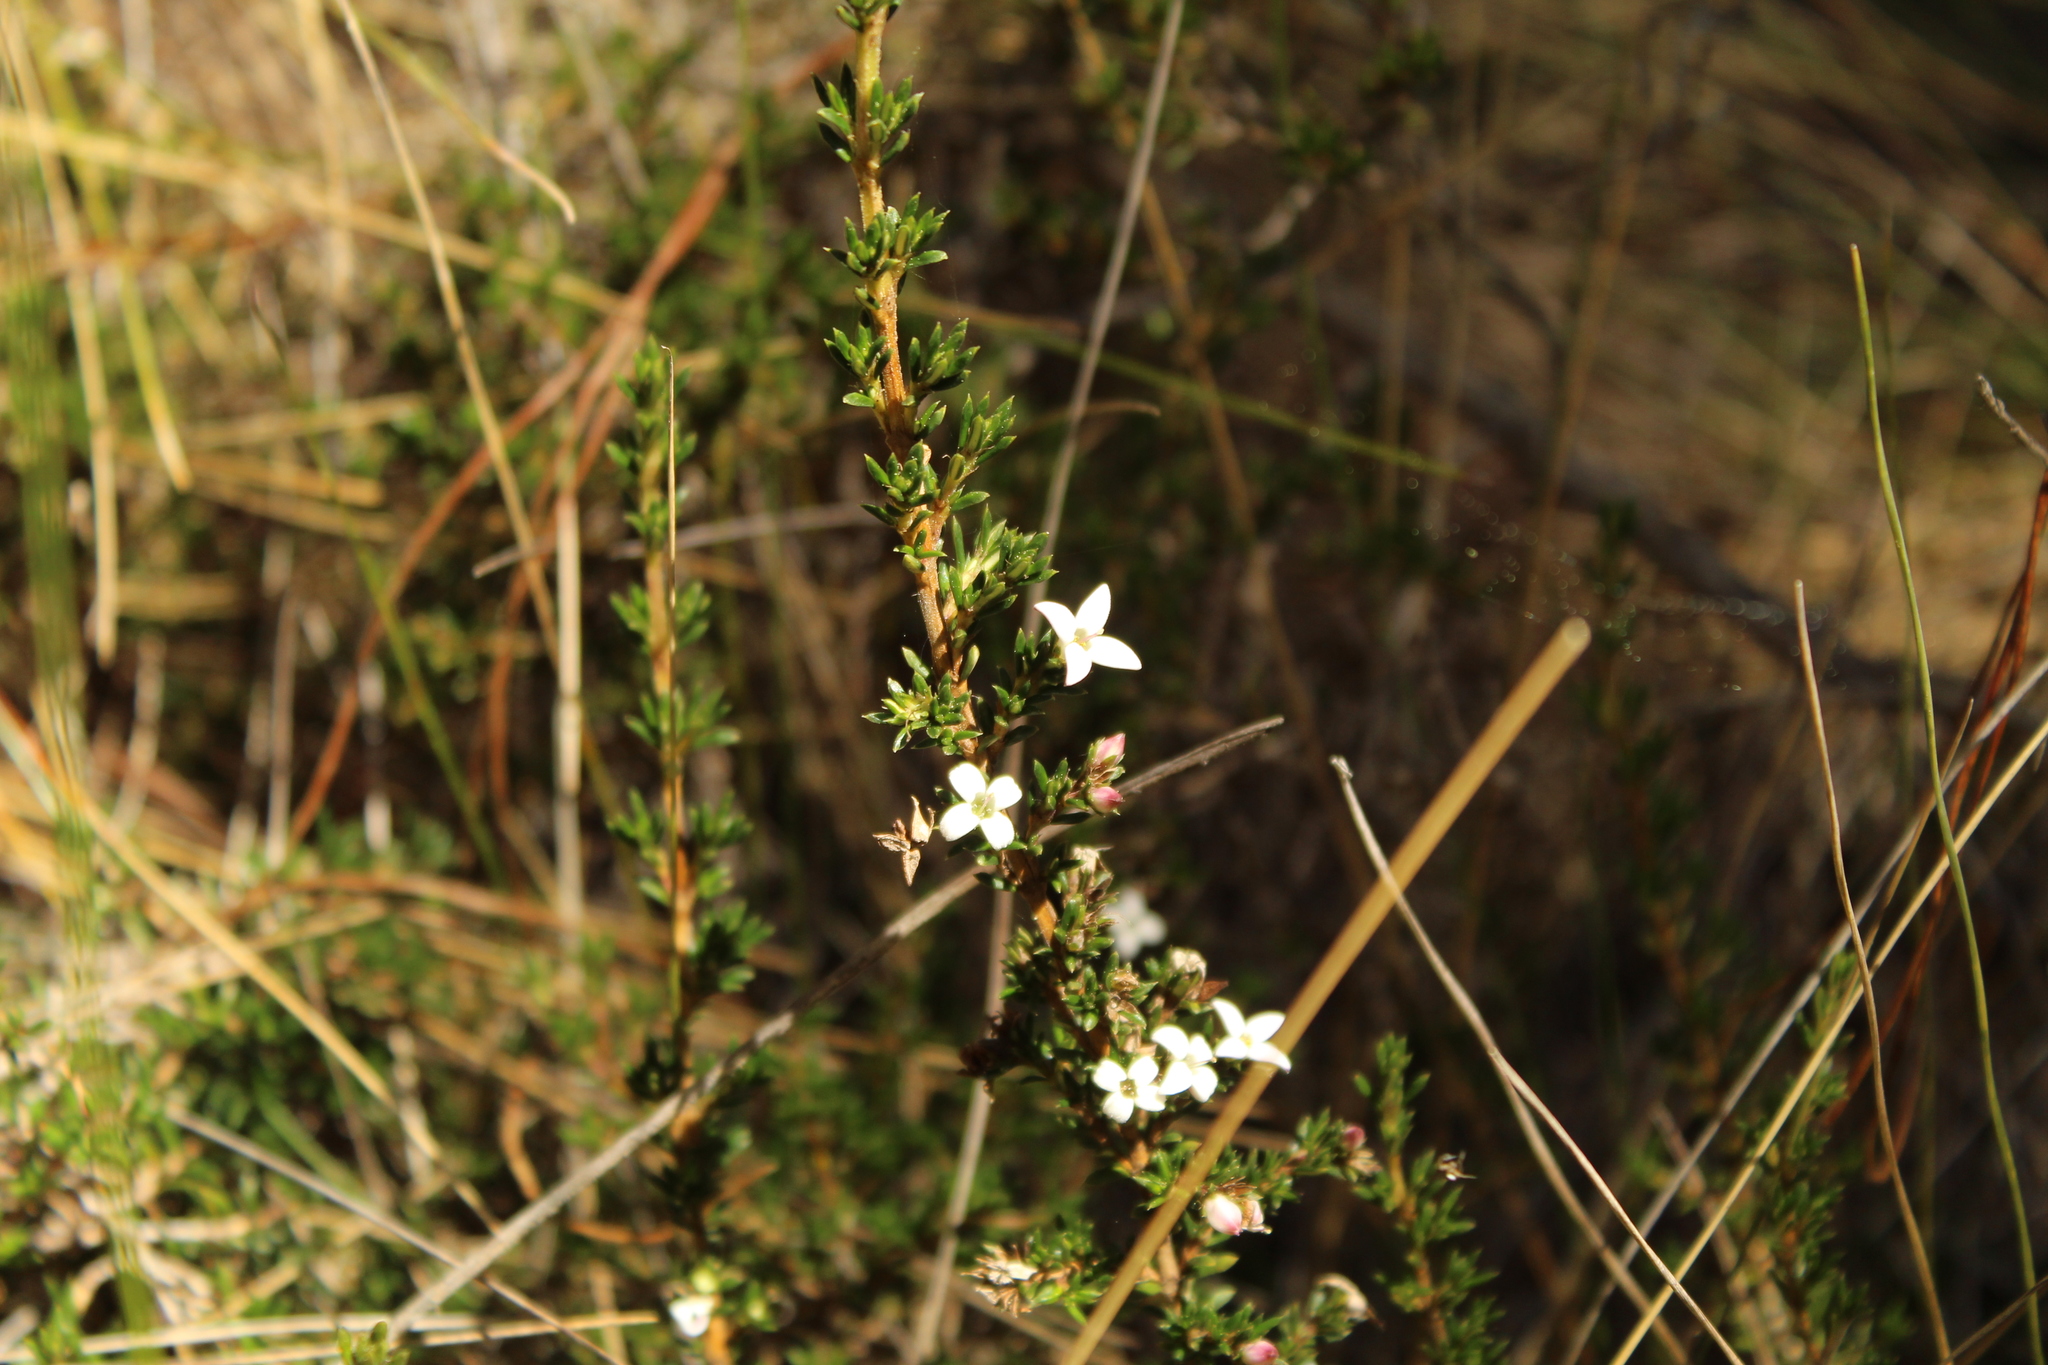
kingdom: Plantae
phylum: Tracheophyta
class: Magnoliopsida
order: Gentianales
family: Rubiaceae
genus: Arcytophyllum
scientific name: Arcytophyllum nitidum
